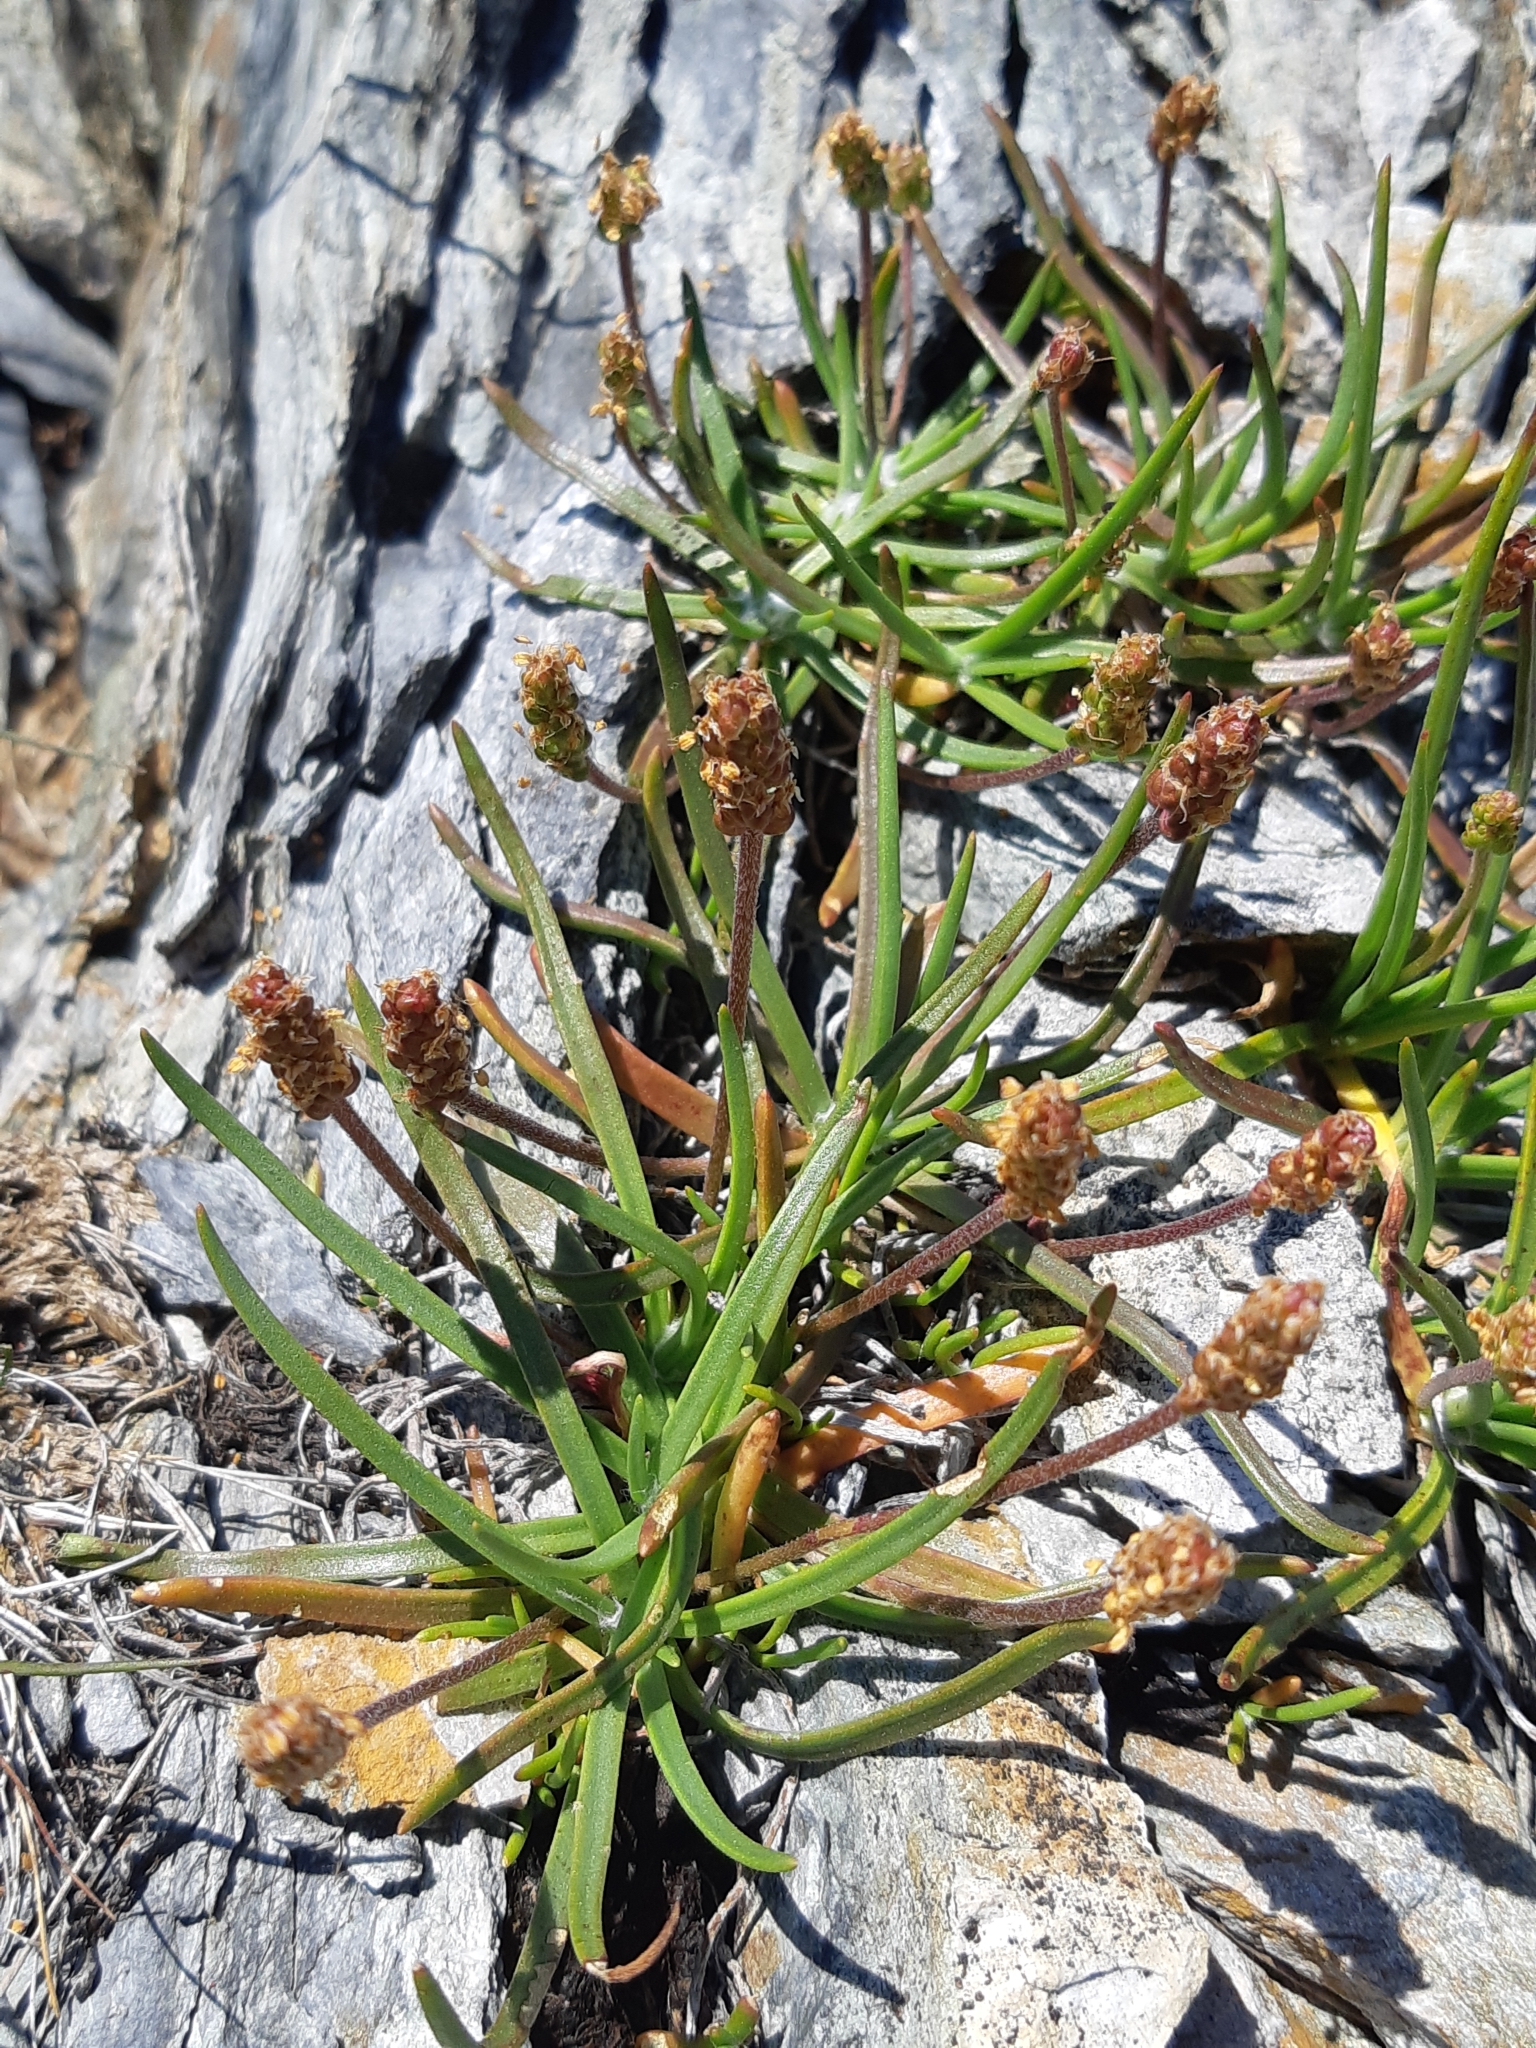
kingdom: Plantae
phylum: Tracheophyta
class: Magnoliopsida
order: Lamiales
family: Plantaginaceae
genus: Plantago
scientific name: Plantago maritima
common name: Sea plantain
